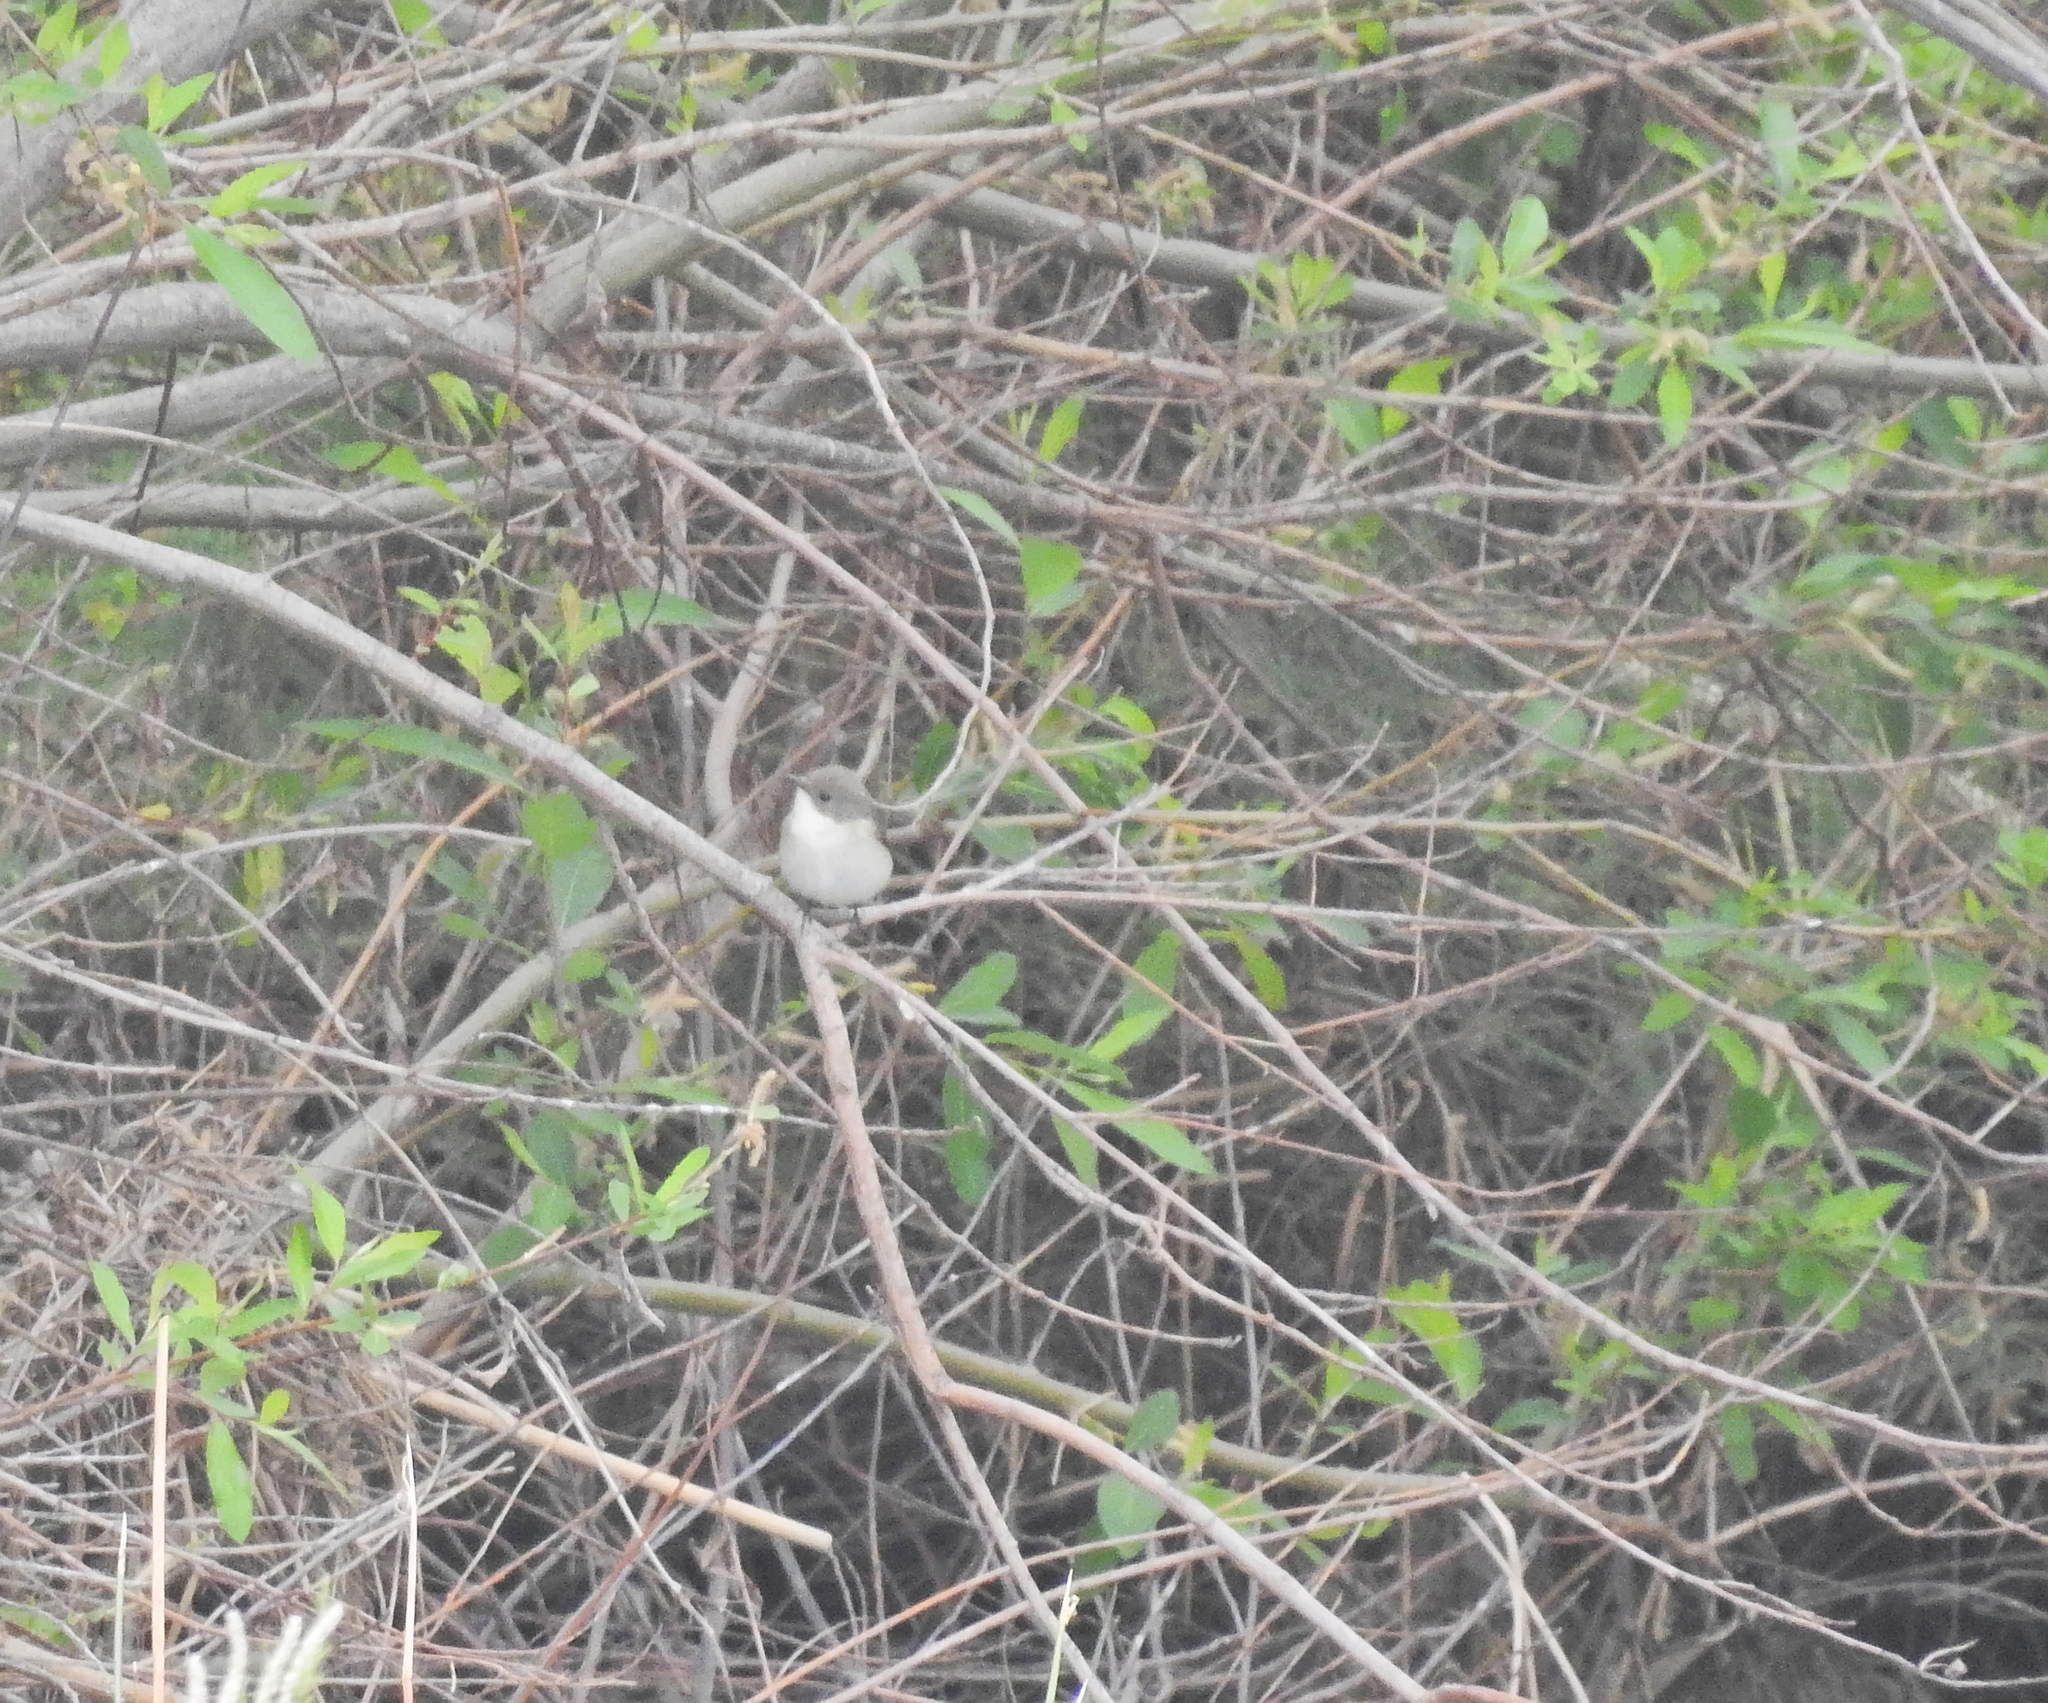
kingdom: Animalia
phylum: Chordata
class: Aves
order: Passeriformes
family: Muscicapidae
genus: Ficedula
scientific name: Ficedula hypoleuca
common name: European pied flycatcher
